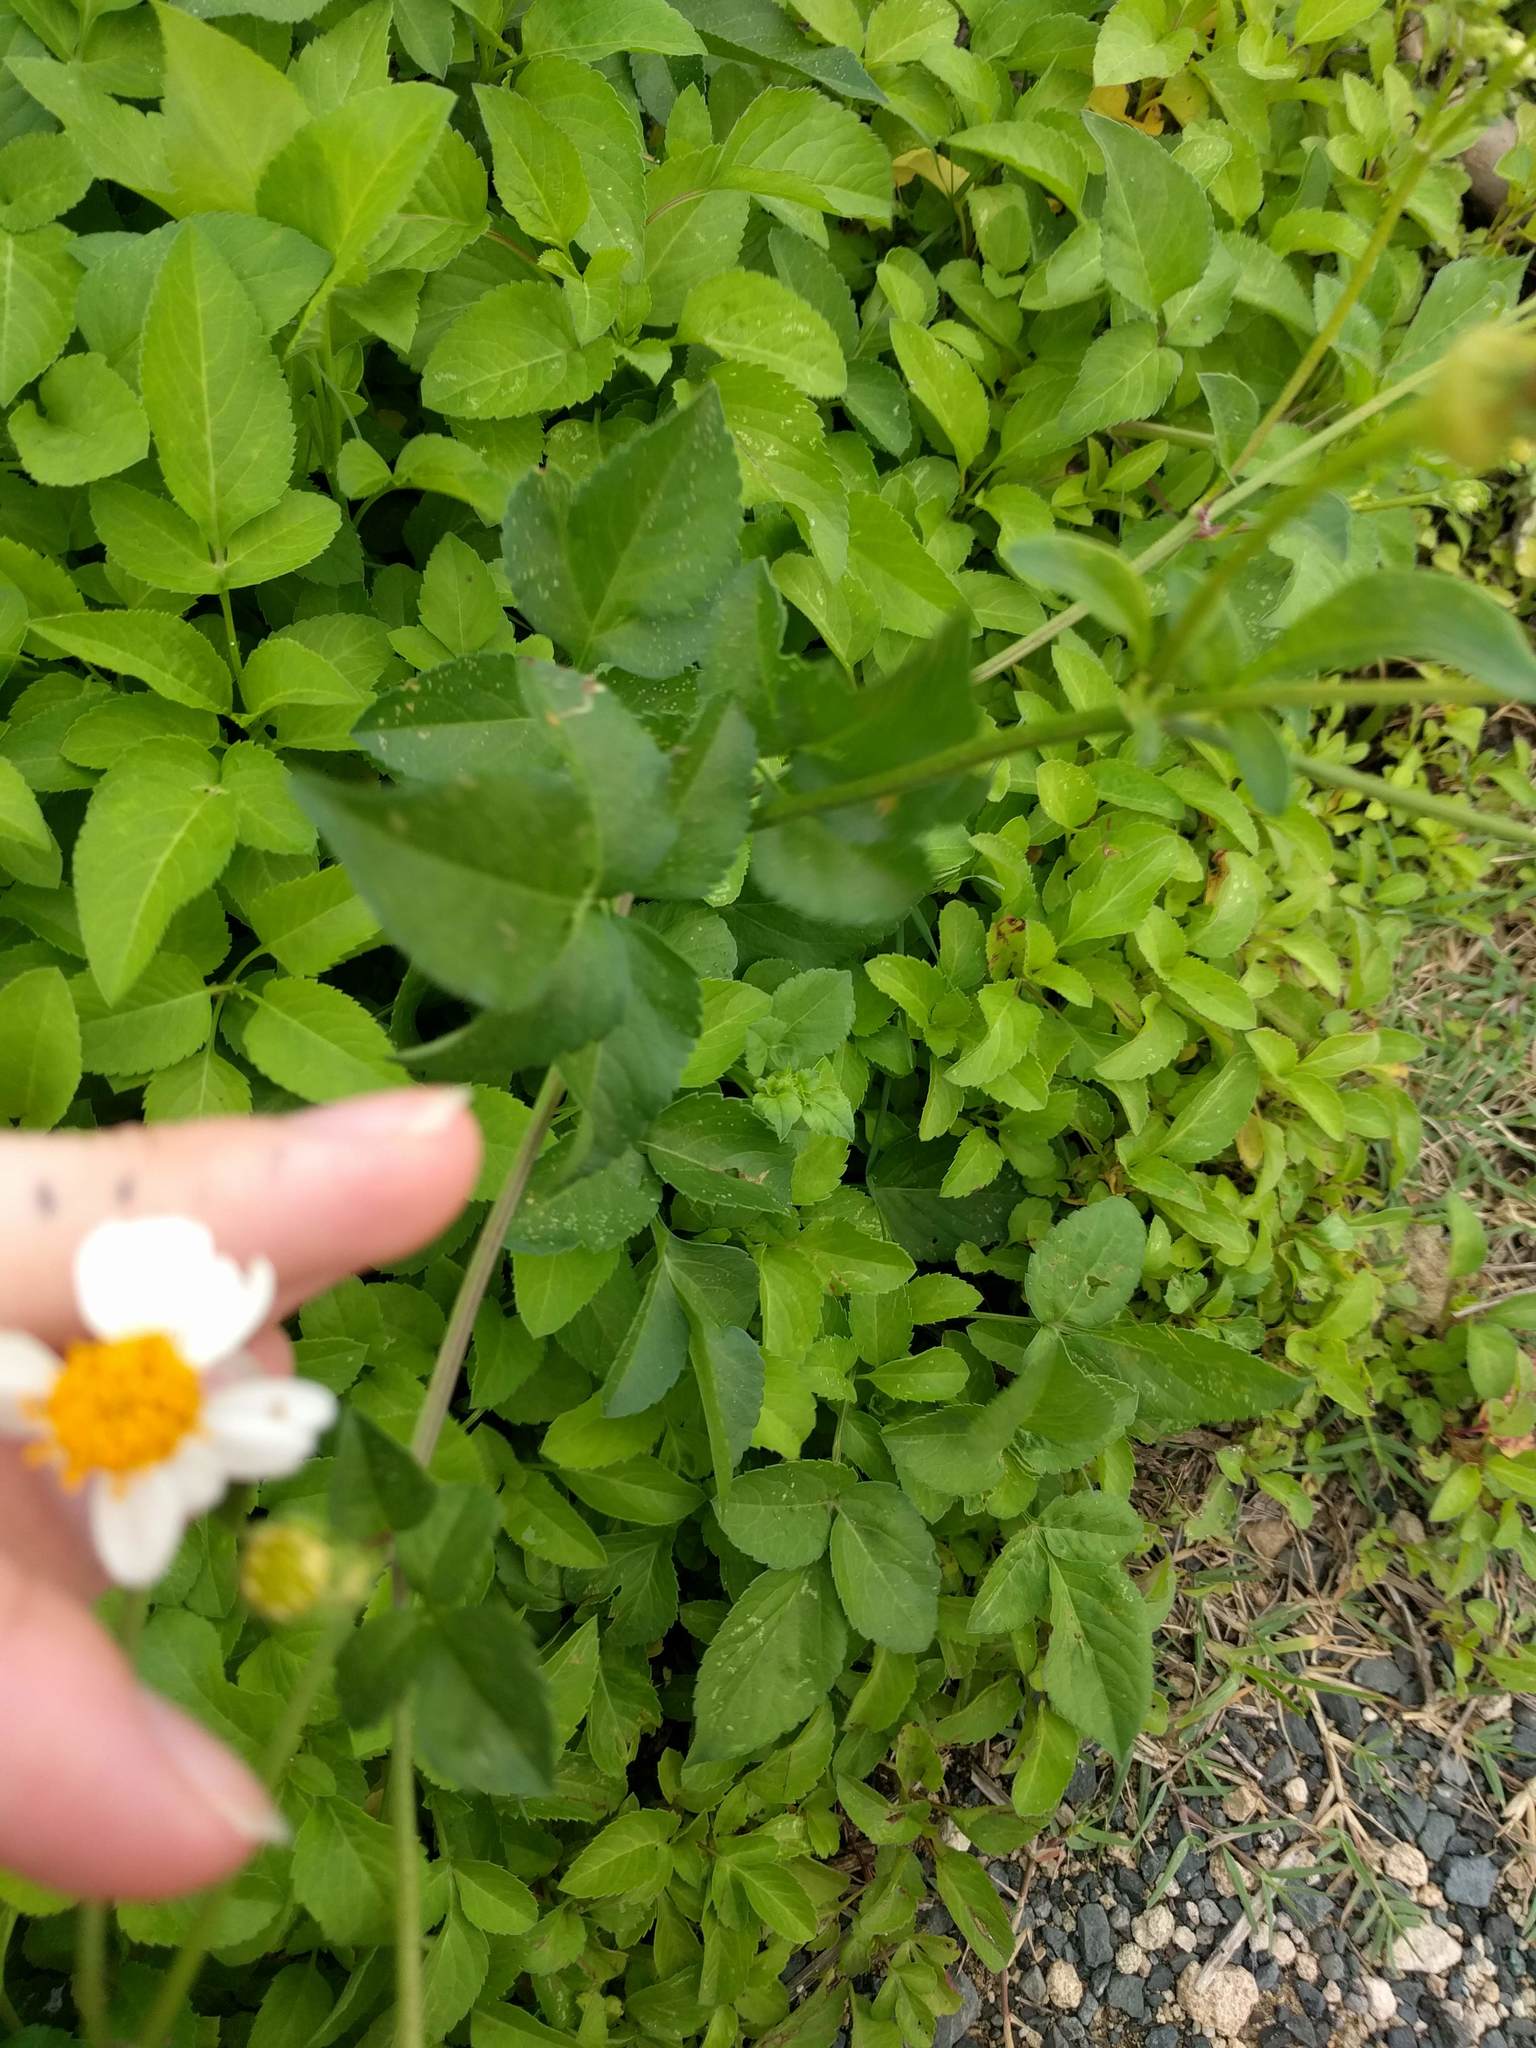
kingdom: Plantae
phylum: Tracheophyta
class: Magnoliopsida
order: Asterales
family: Asteraceae
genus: Bidens
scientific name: Bidens alba
